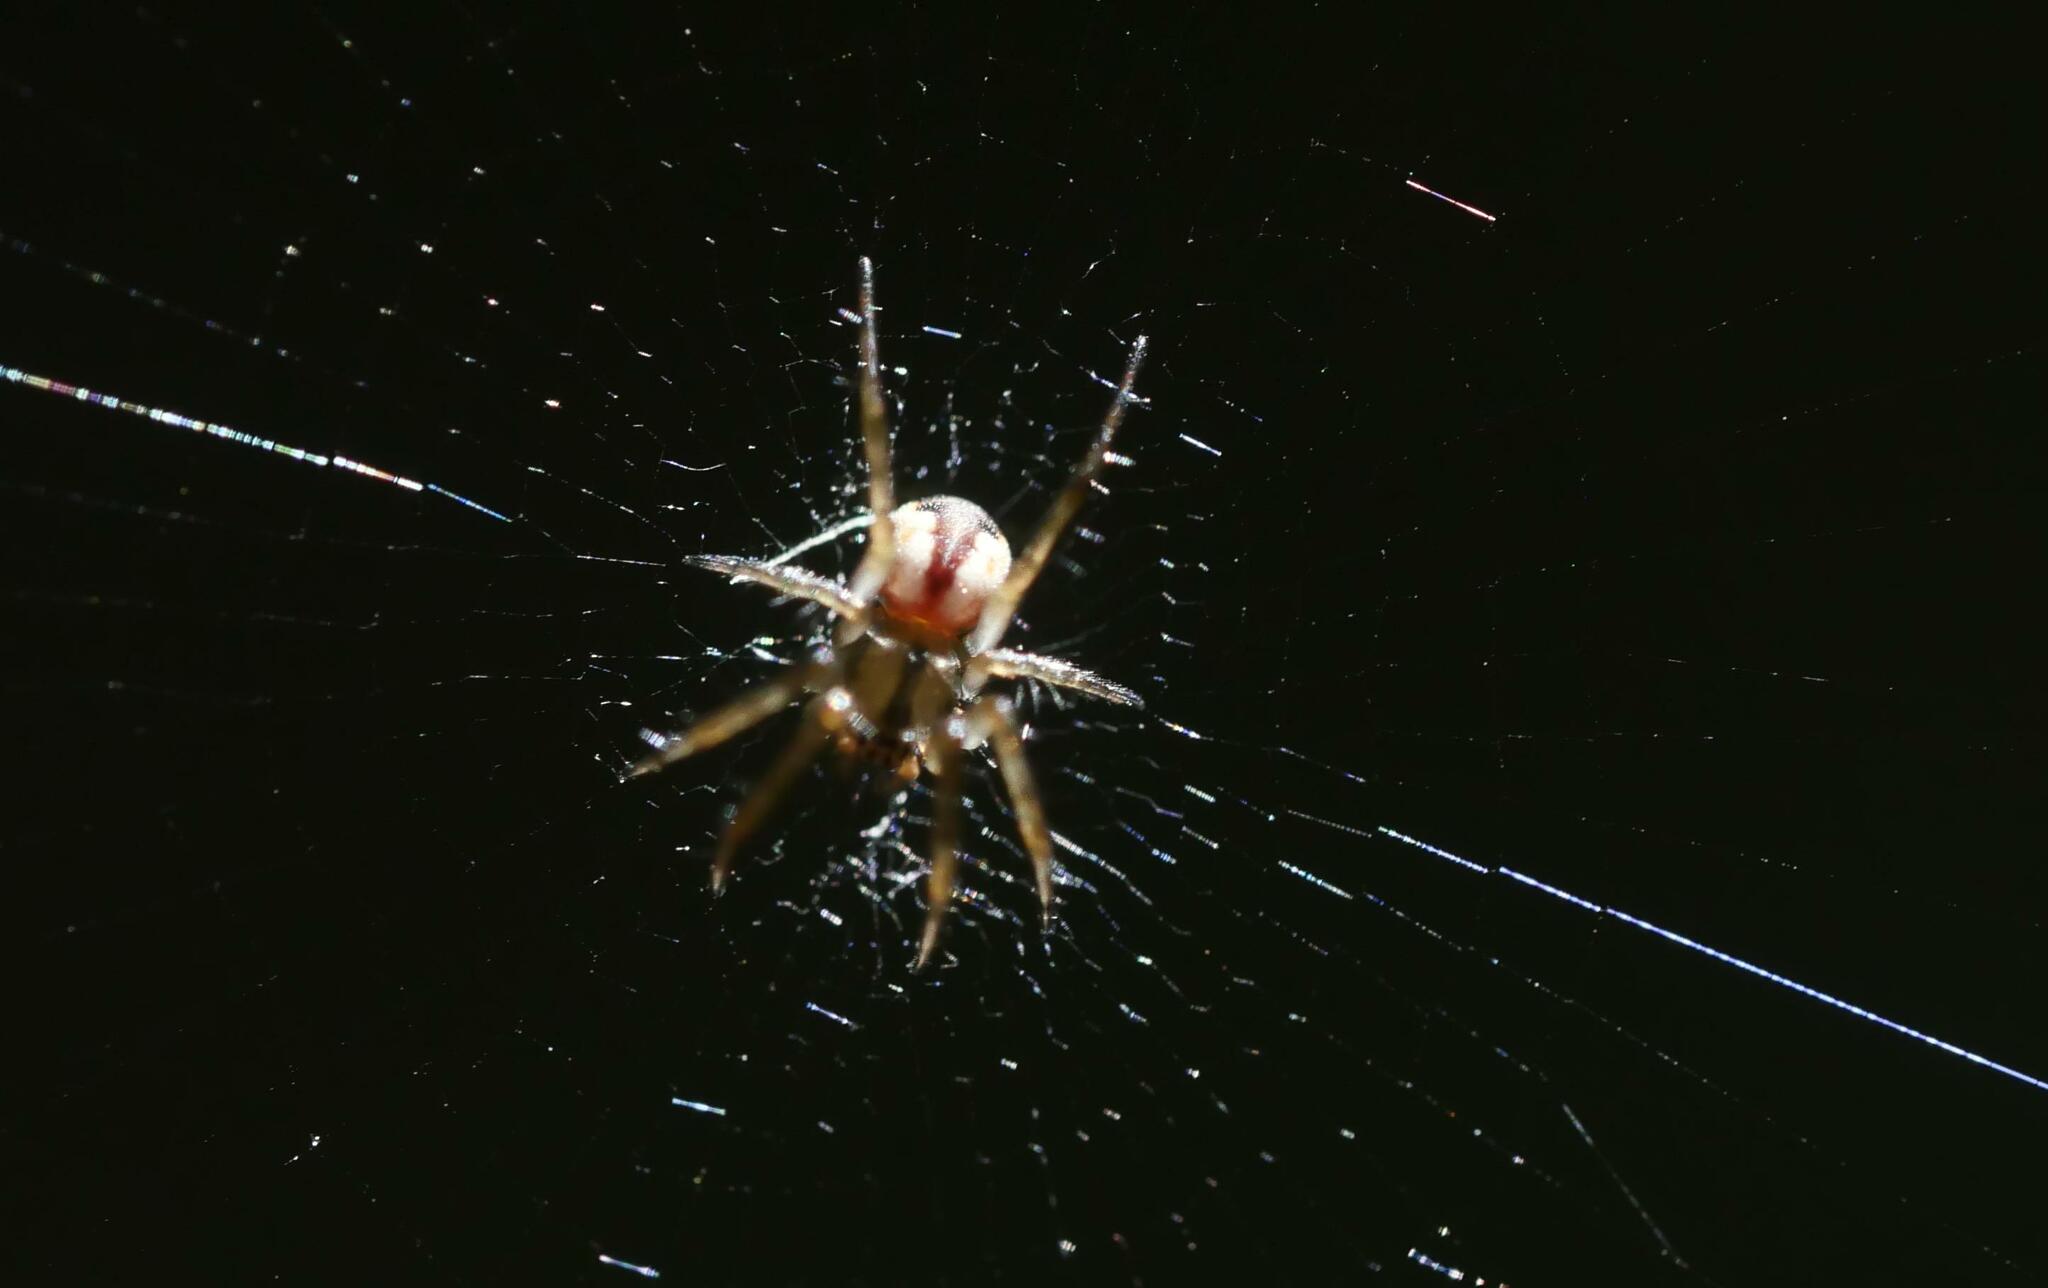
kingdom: Animalia
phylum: Arthropoda
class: Arachnida
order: Araneae
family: Araneidae
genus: Mangora
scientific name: Mangora placida
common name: Tuft-legged orbweaver
